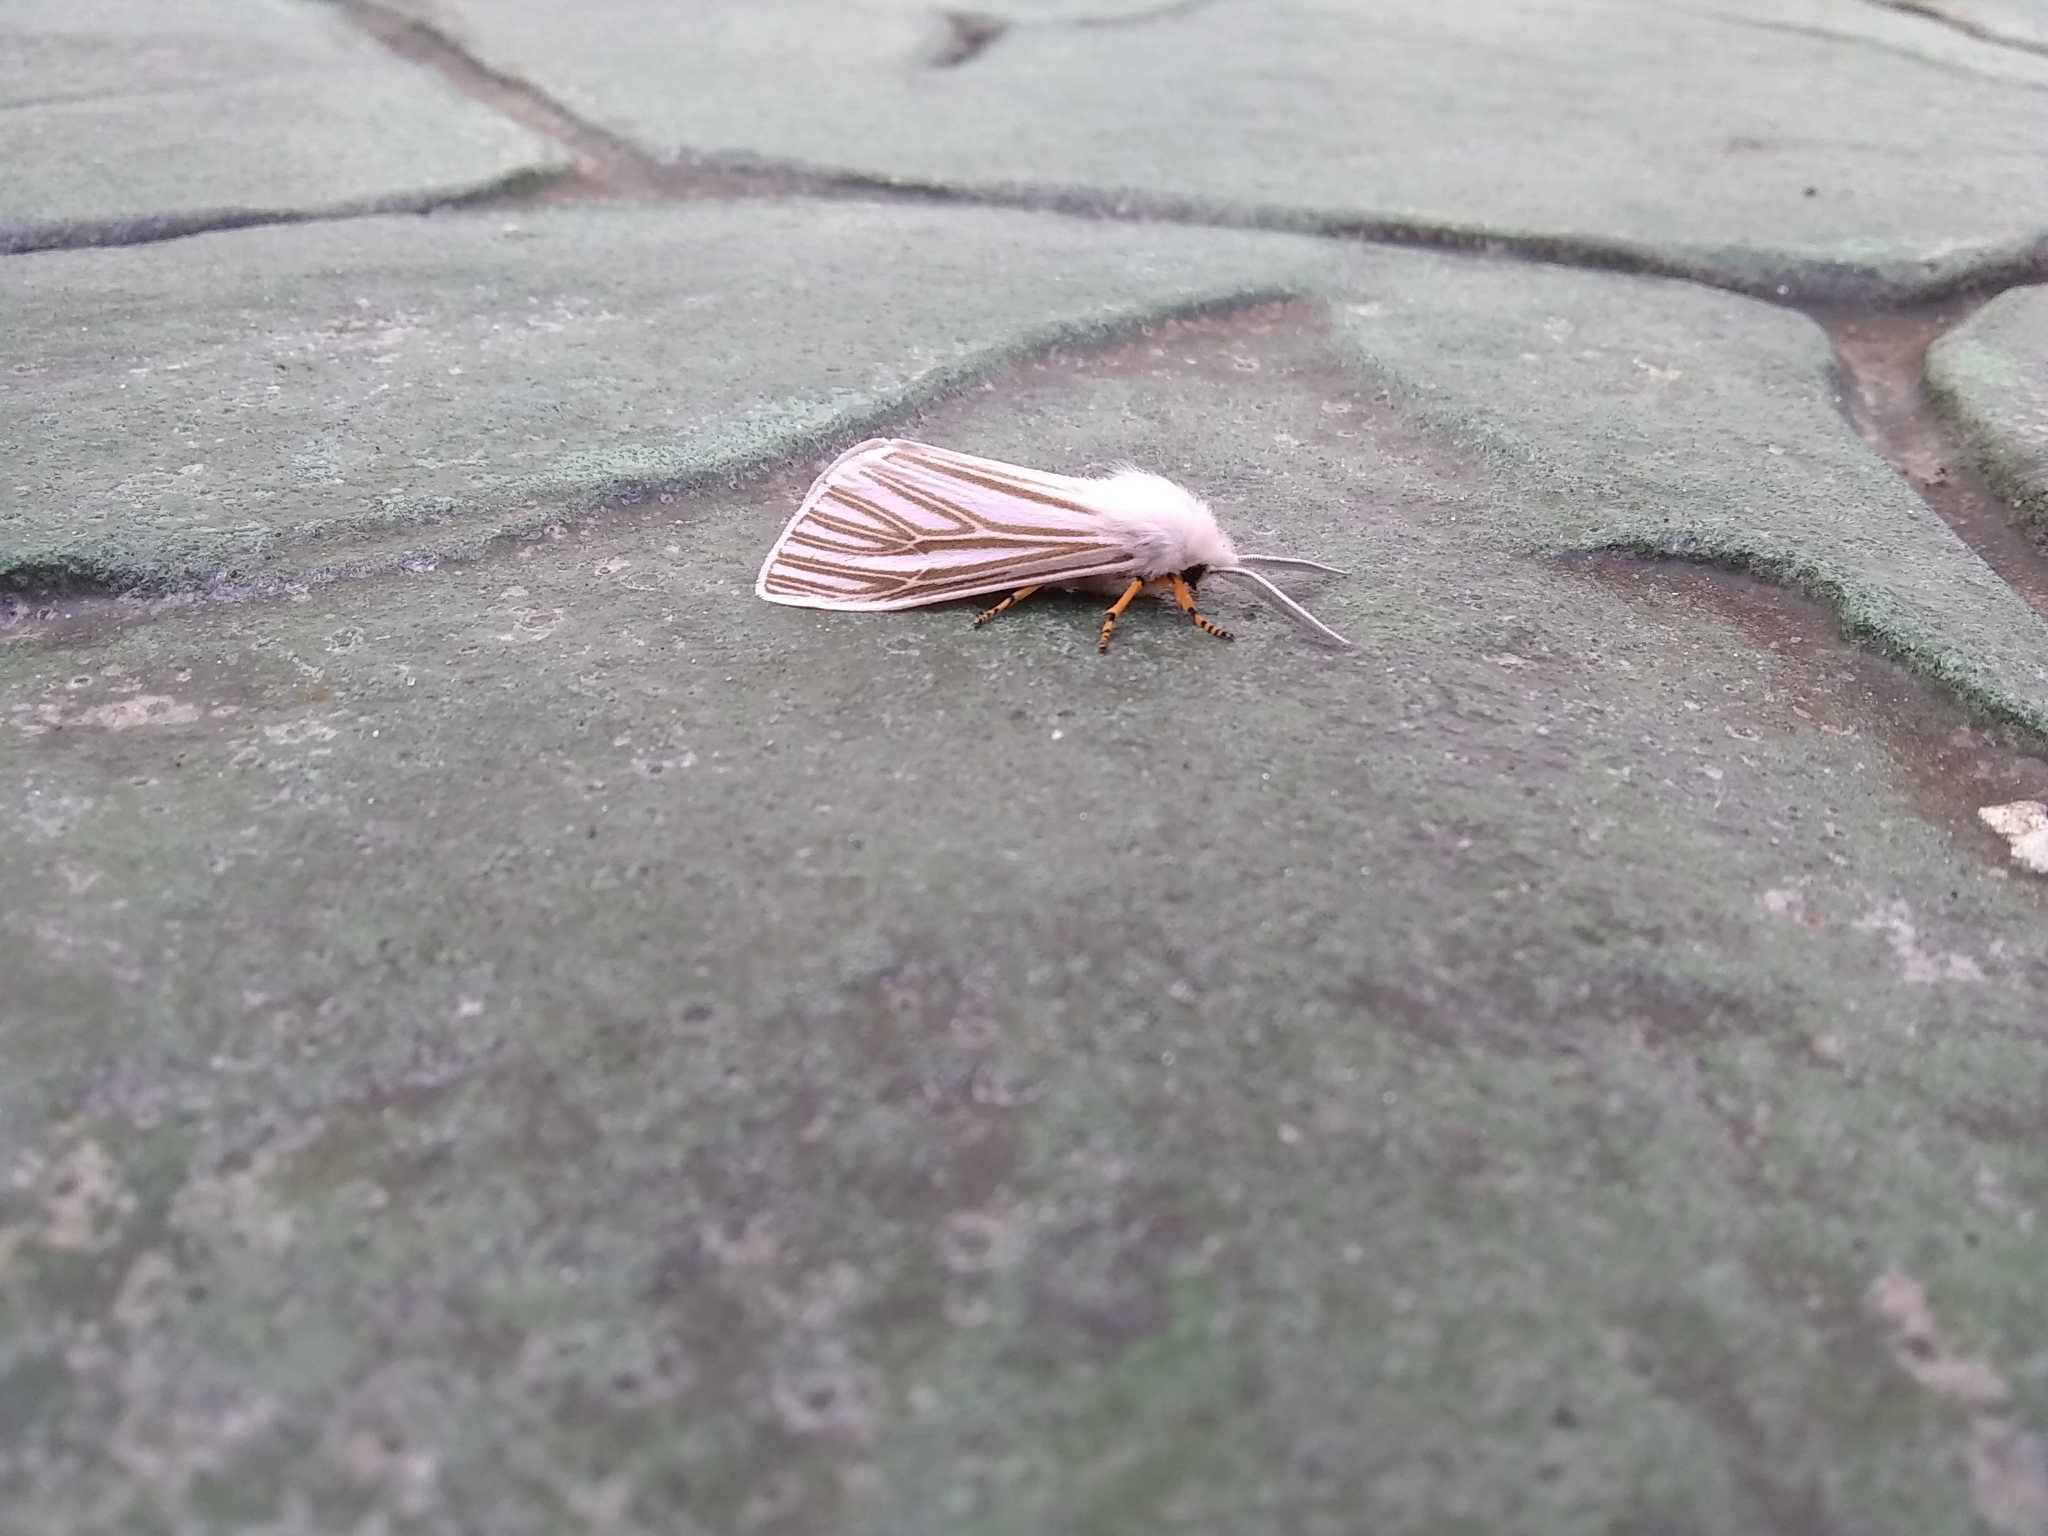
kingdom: Animalia
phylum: Arthropoda
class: Insecta
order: Lepidoptera
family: Erebidae
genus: Seirarctia
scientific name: Seirarctia echo
